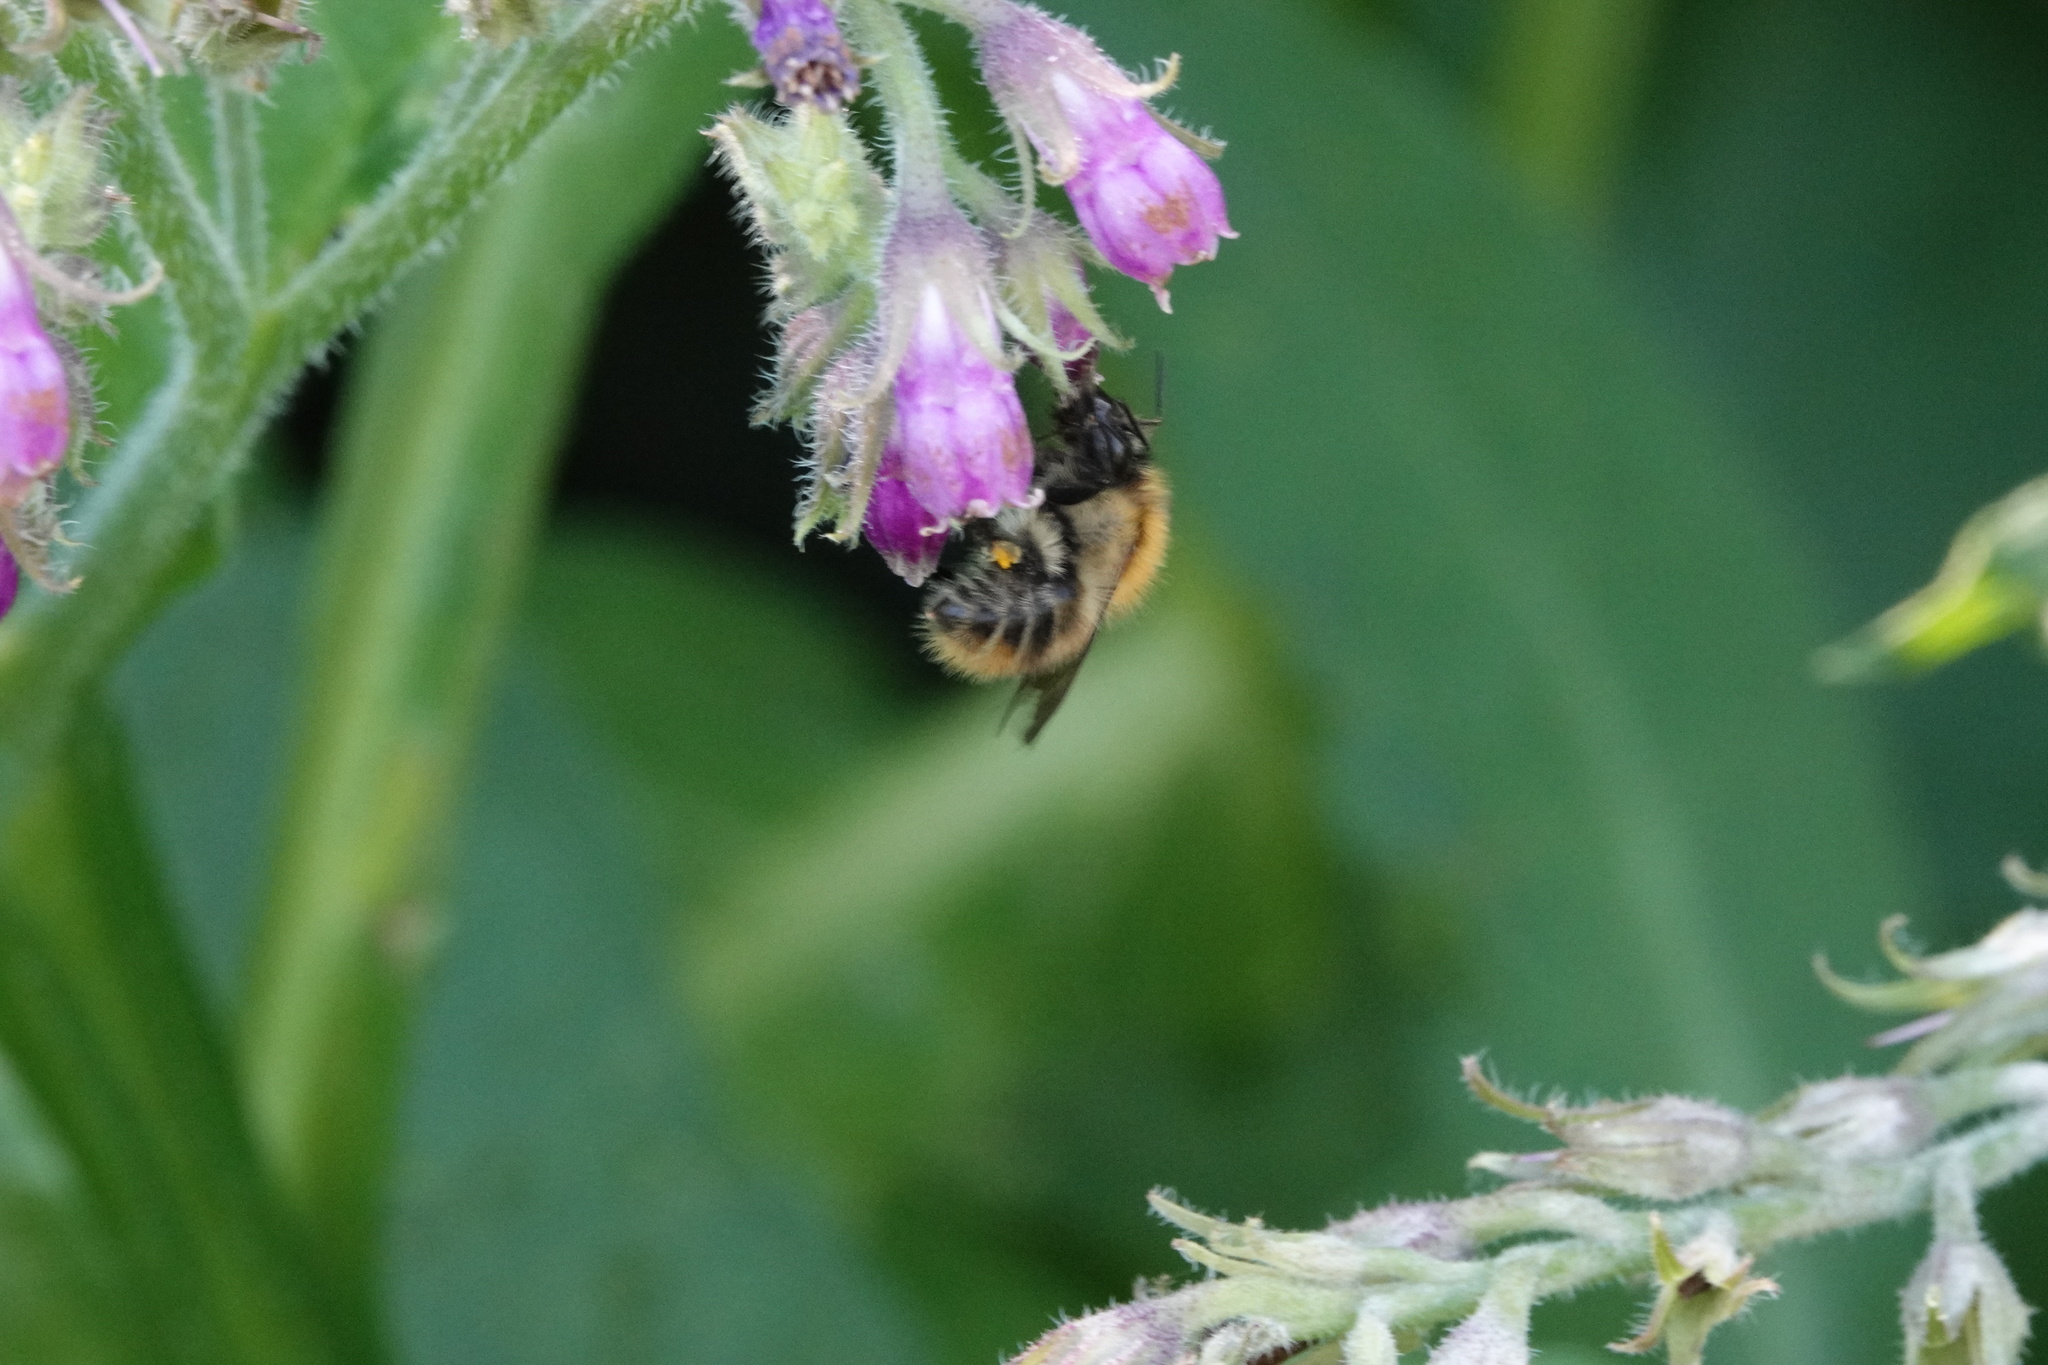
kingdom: Animalia
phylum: Arthropoda
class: Insecta
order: Hymenoptera
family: Apidae
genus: Bombus
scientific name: Bombus pascuorum
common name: Common carder bee
